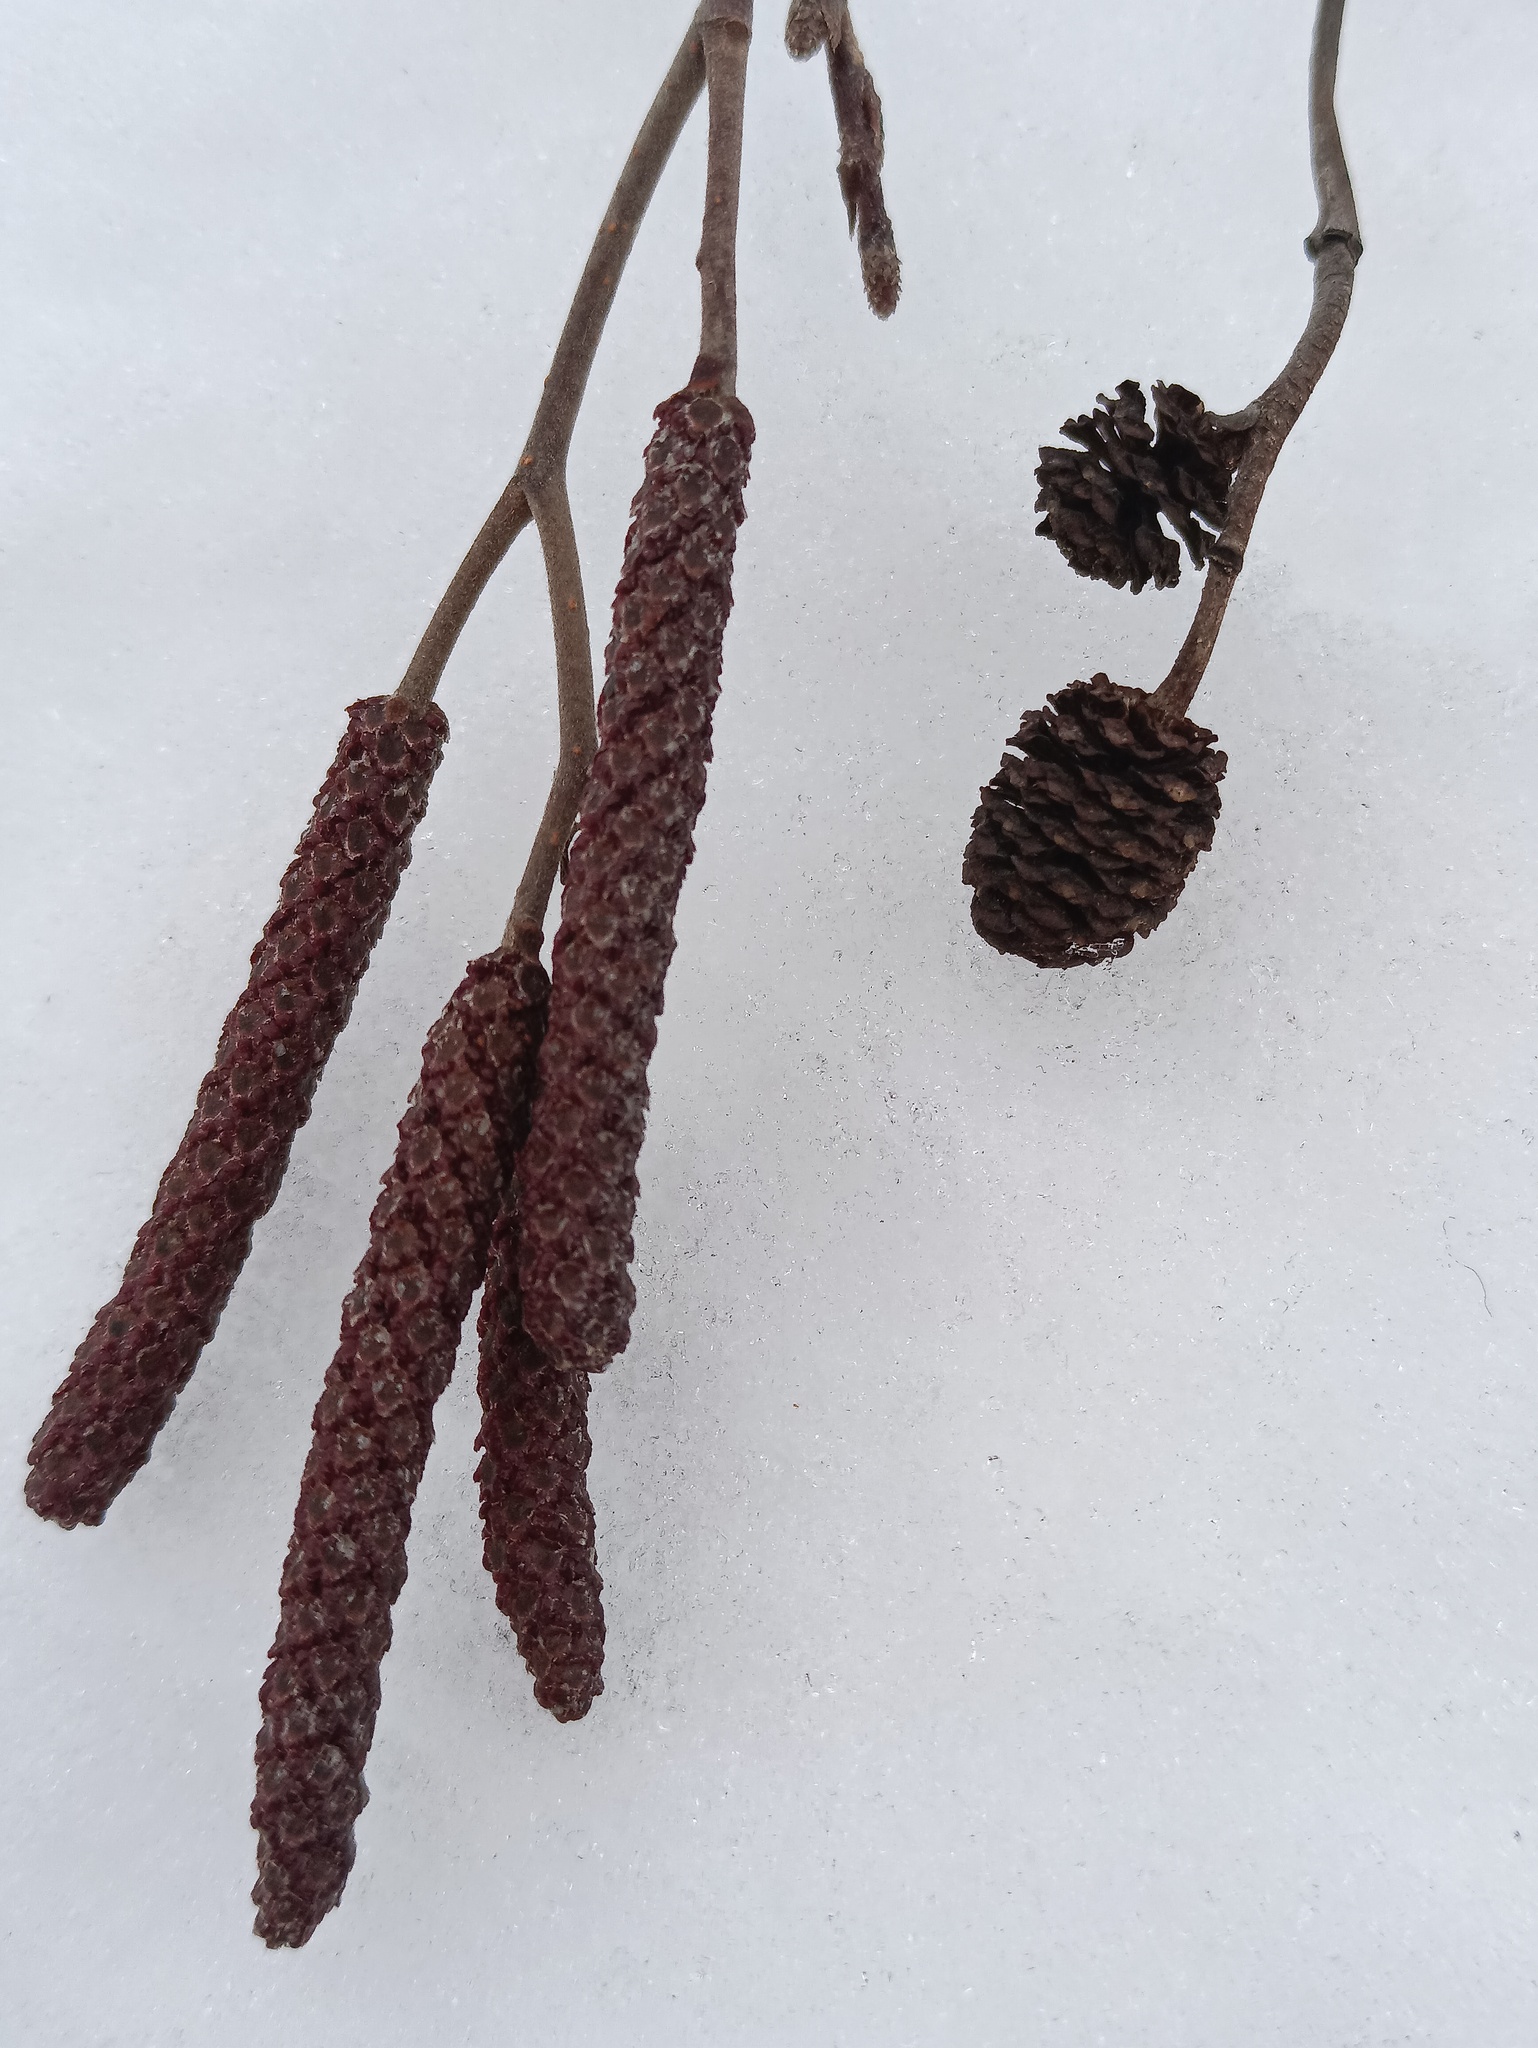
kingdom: Plantae
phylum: Tracheophyta
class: Magnoliopsida
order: Fagales
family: Betulaceae
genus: Alnus
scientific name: Alnus incana
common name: Grey alder
